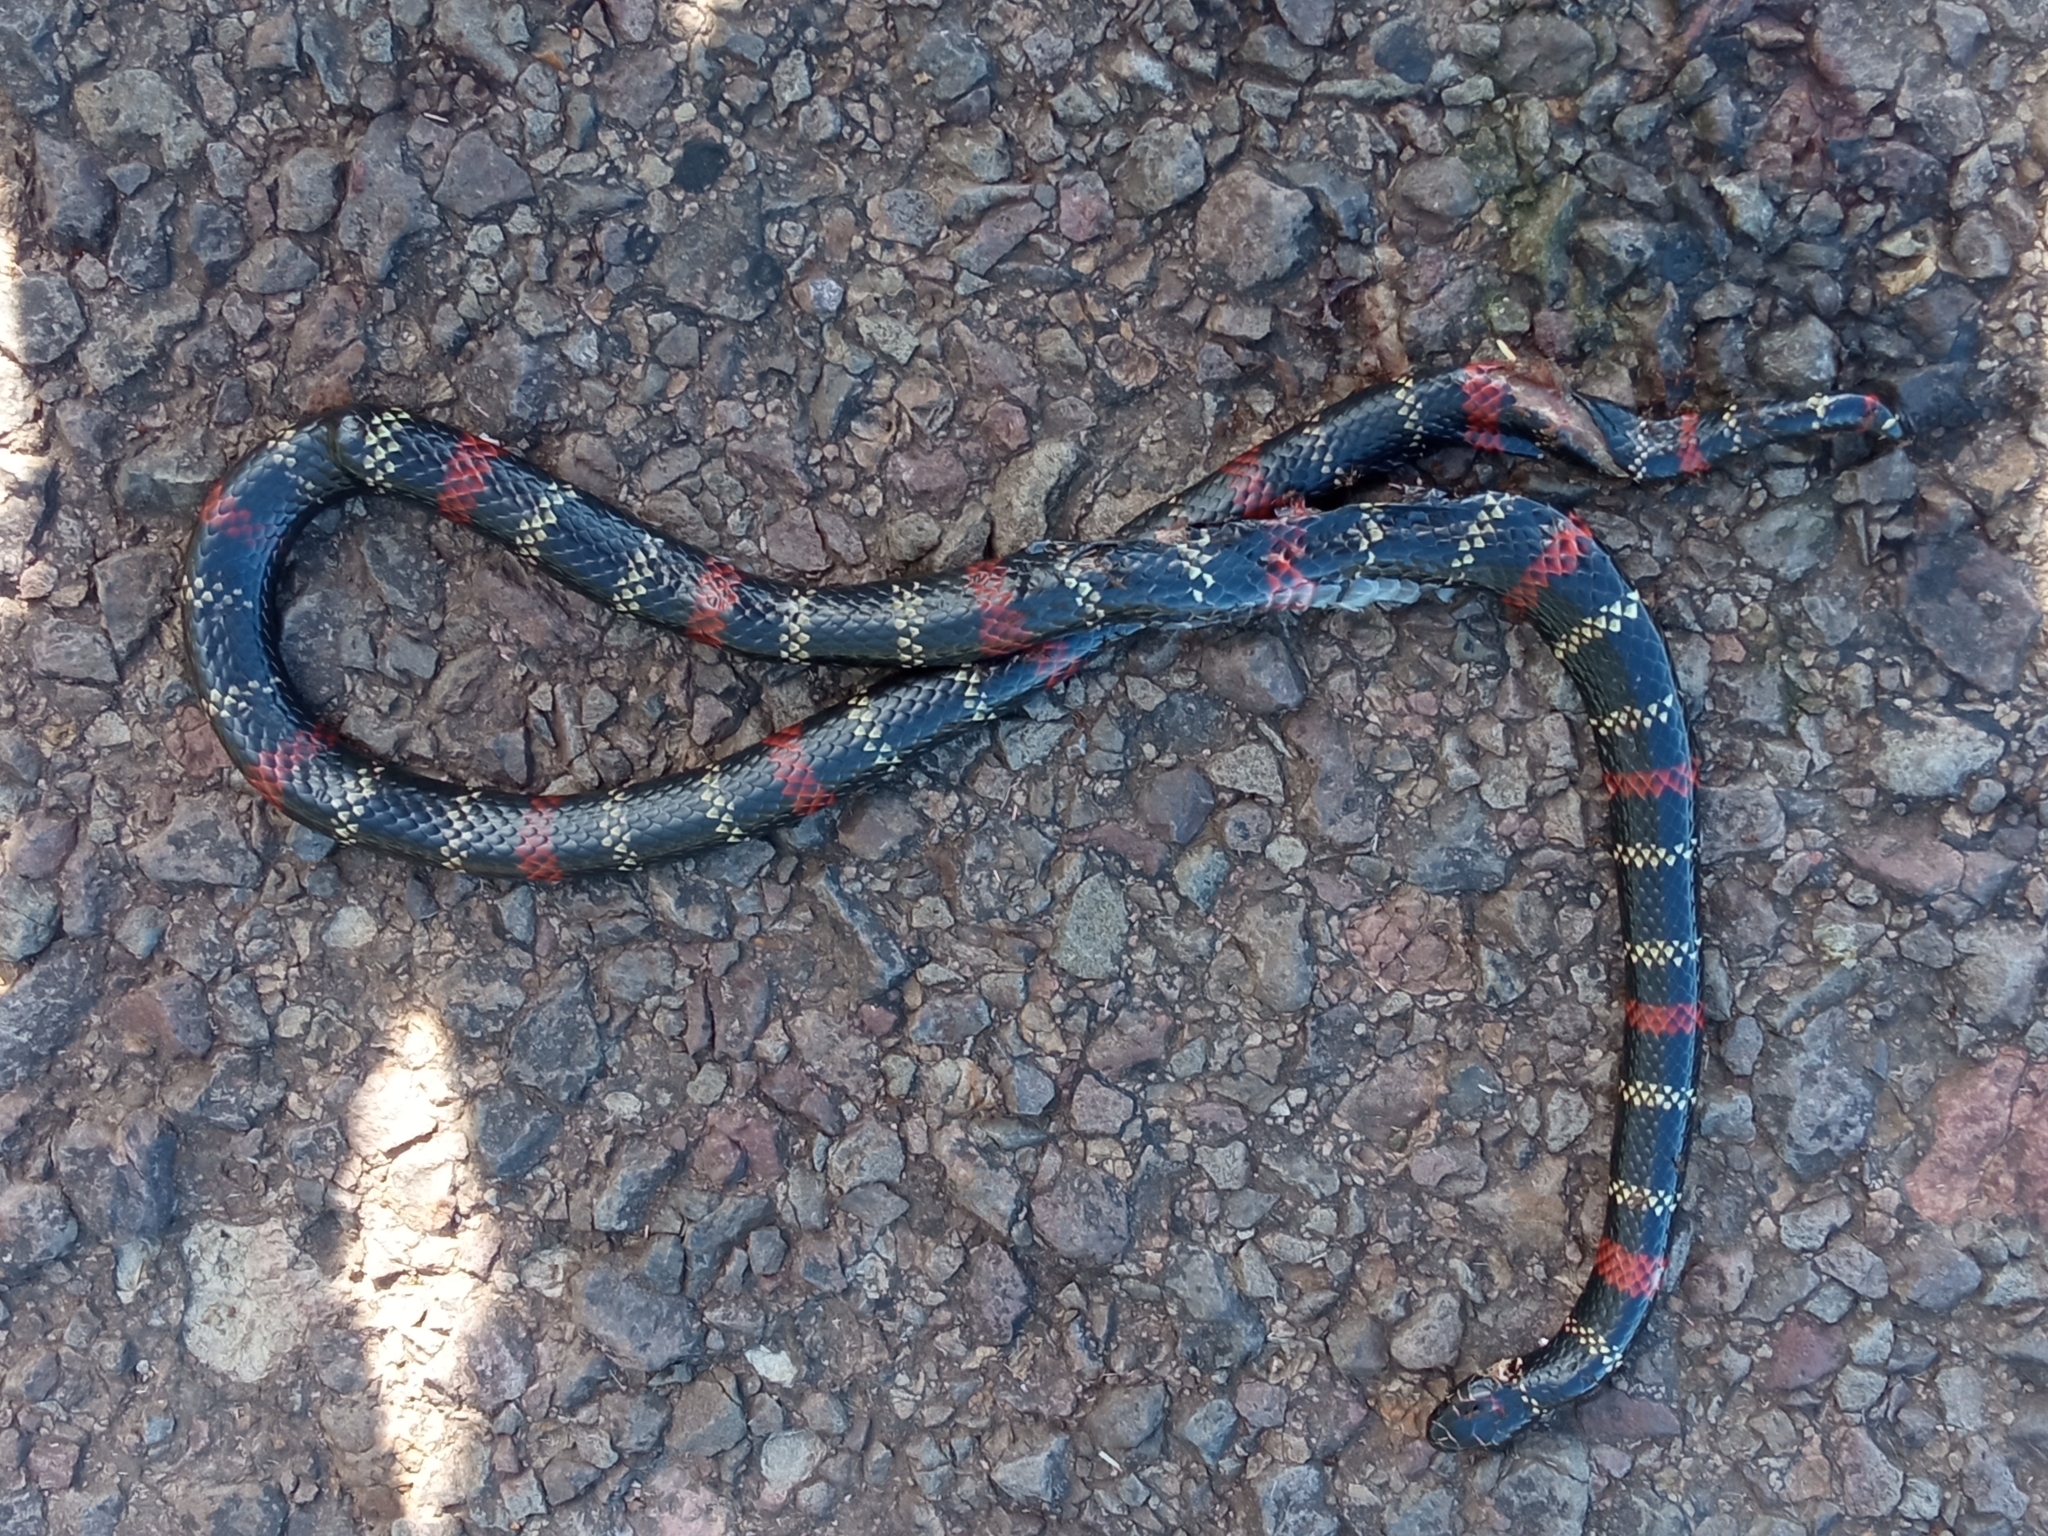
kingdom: Animalia
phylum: Chordata
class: Squamata
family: Elapidae
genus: Micrurus
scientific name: Micrurus altirostris
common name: Uruguayan coral snake
